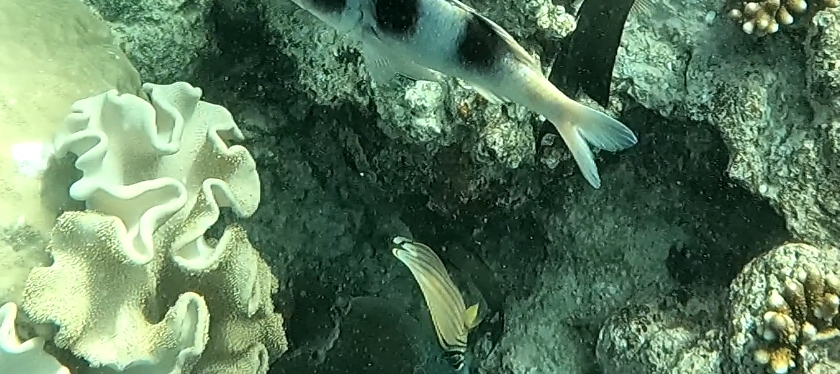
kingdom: Animalia
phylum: Chordata
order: Perciformes
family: Chaetodontidae
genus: Chaetodon
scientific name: Chaetodon ornatissimus
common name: Ornate butterflyfish
